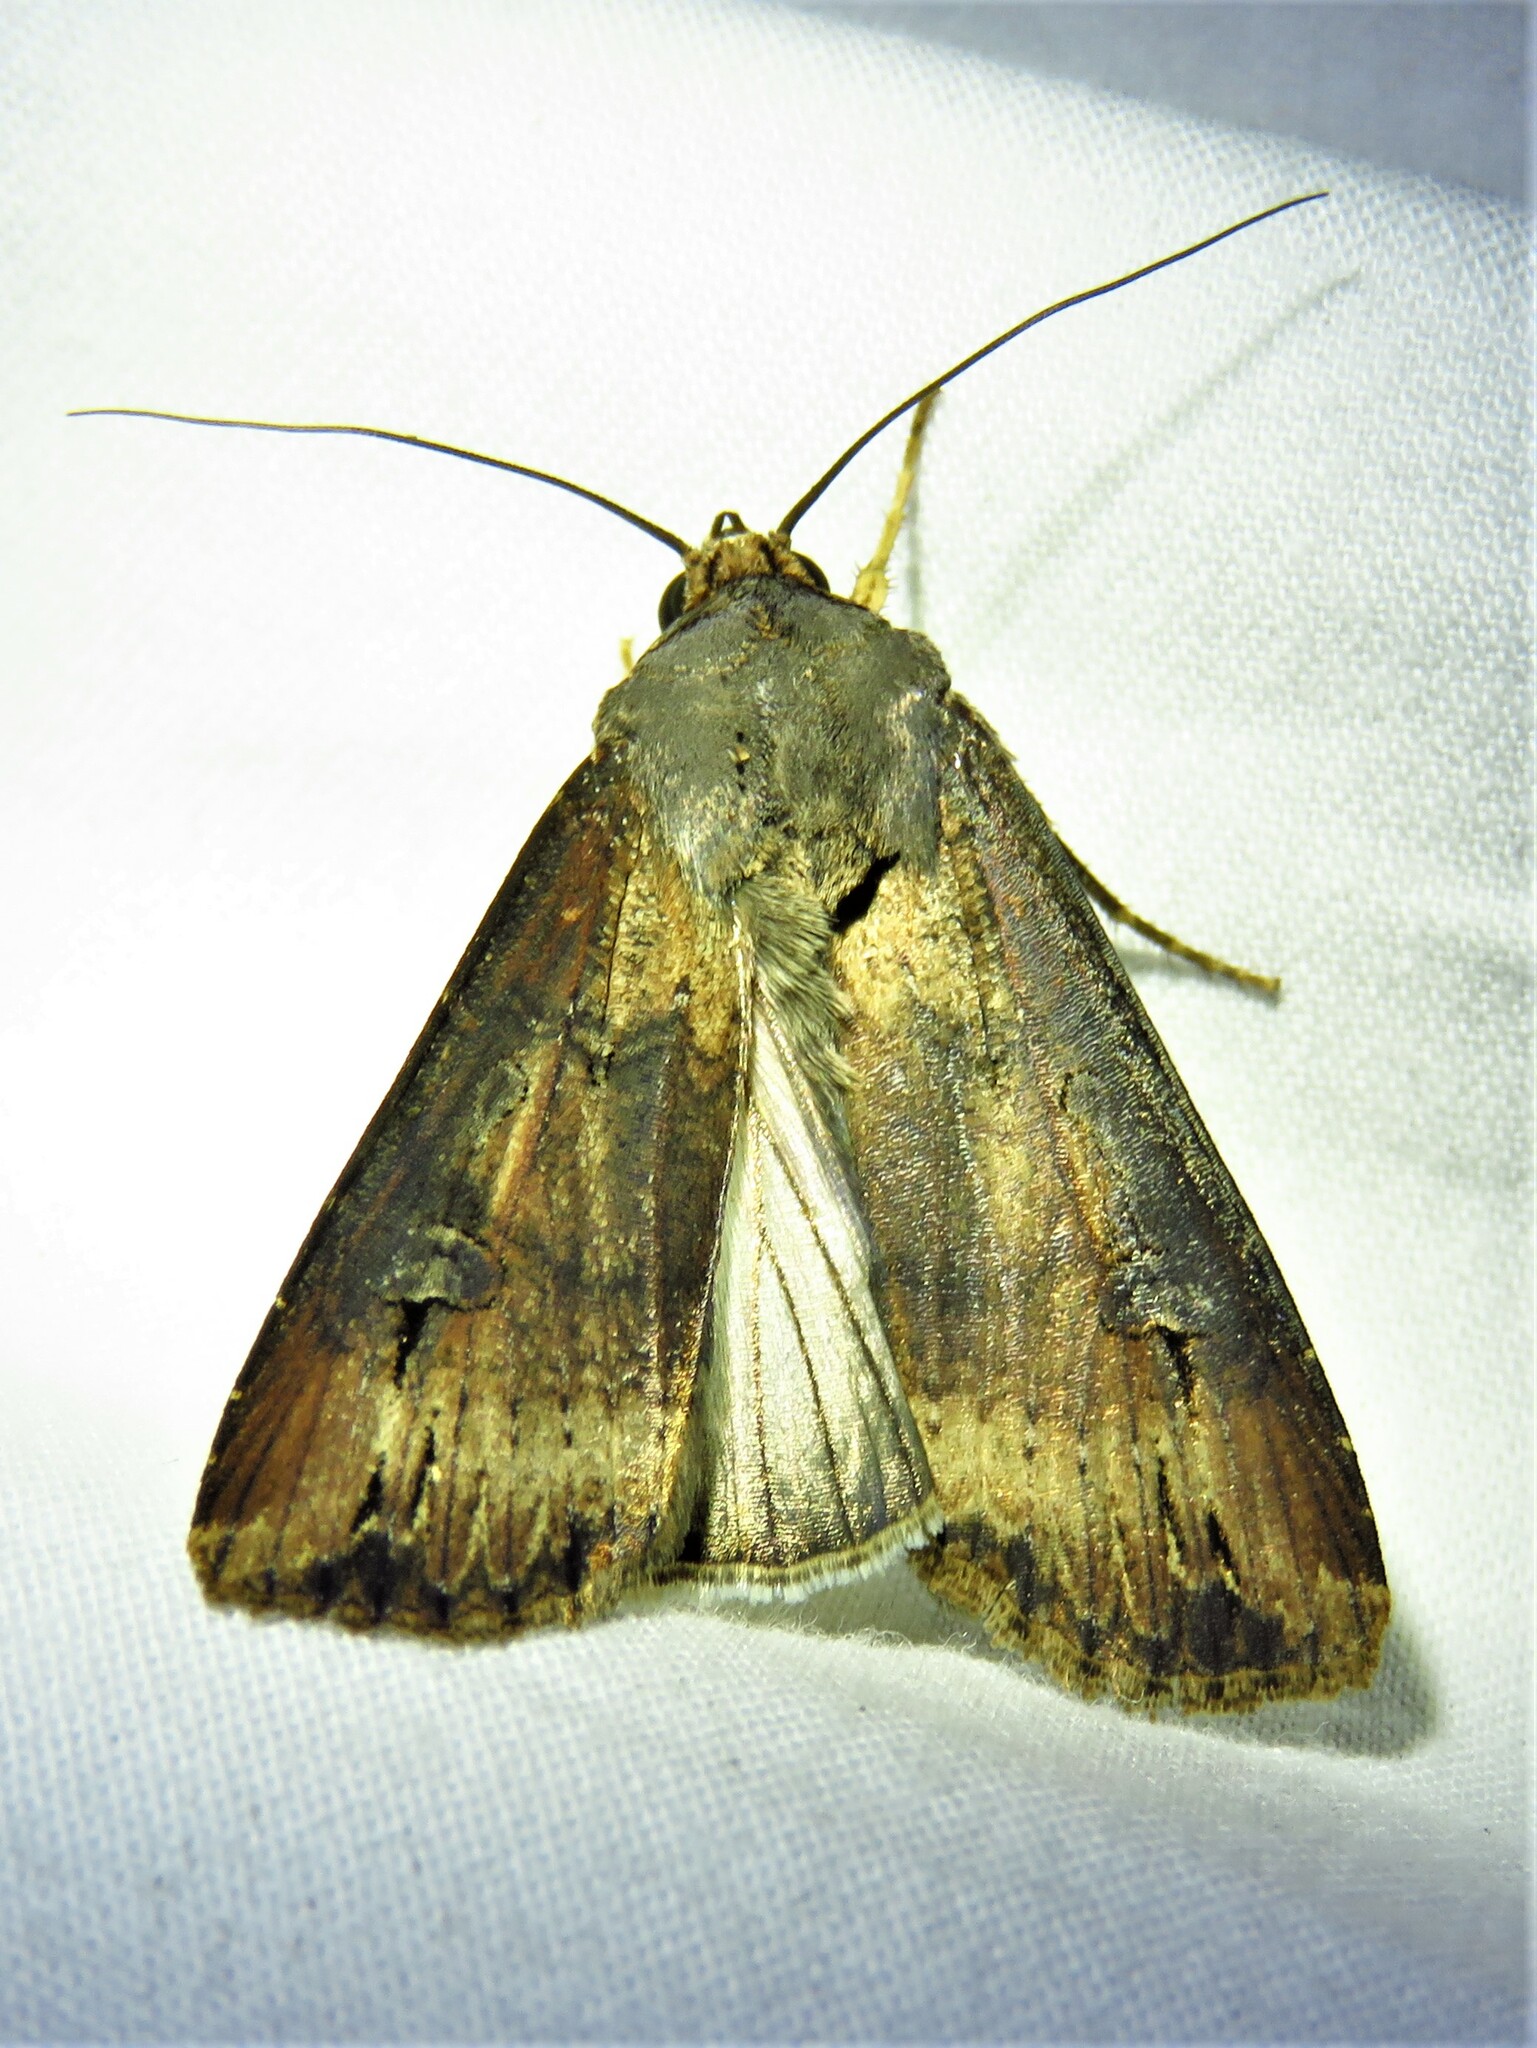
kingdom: Animalia
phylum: Arthropoda
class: Insecta
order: Lepidoptera
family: Noctuidae
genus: Agrotis
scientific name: Agrotis ipsilon
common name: Dark sword-grass
